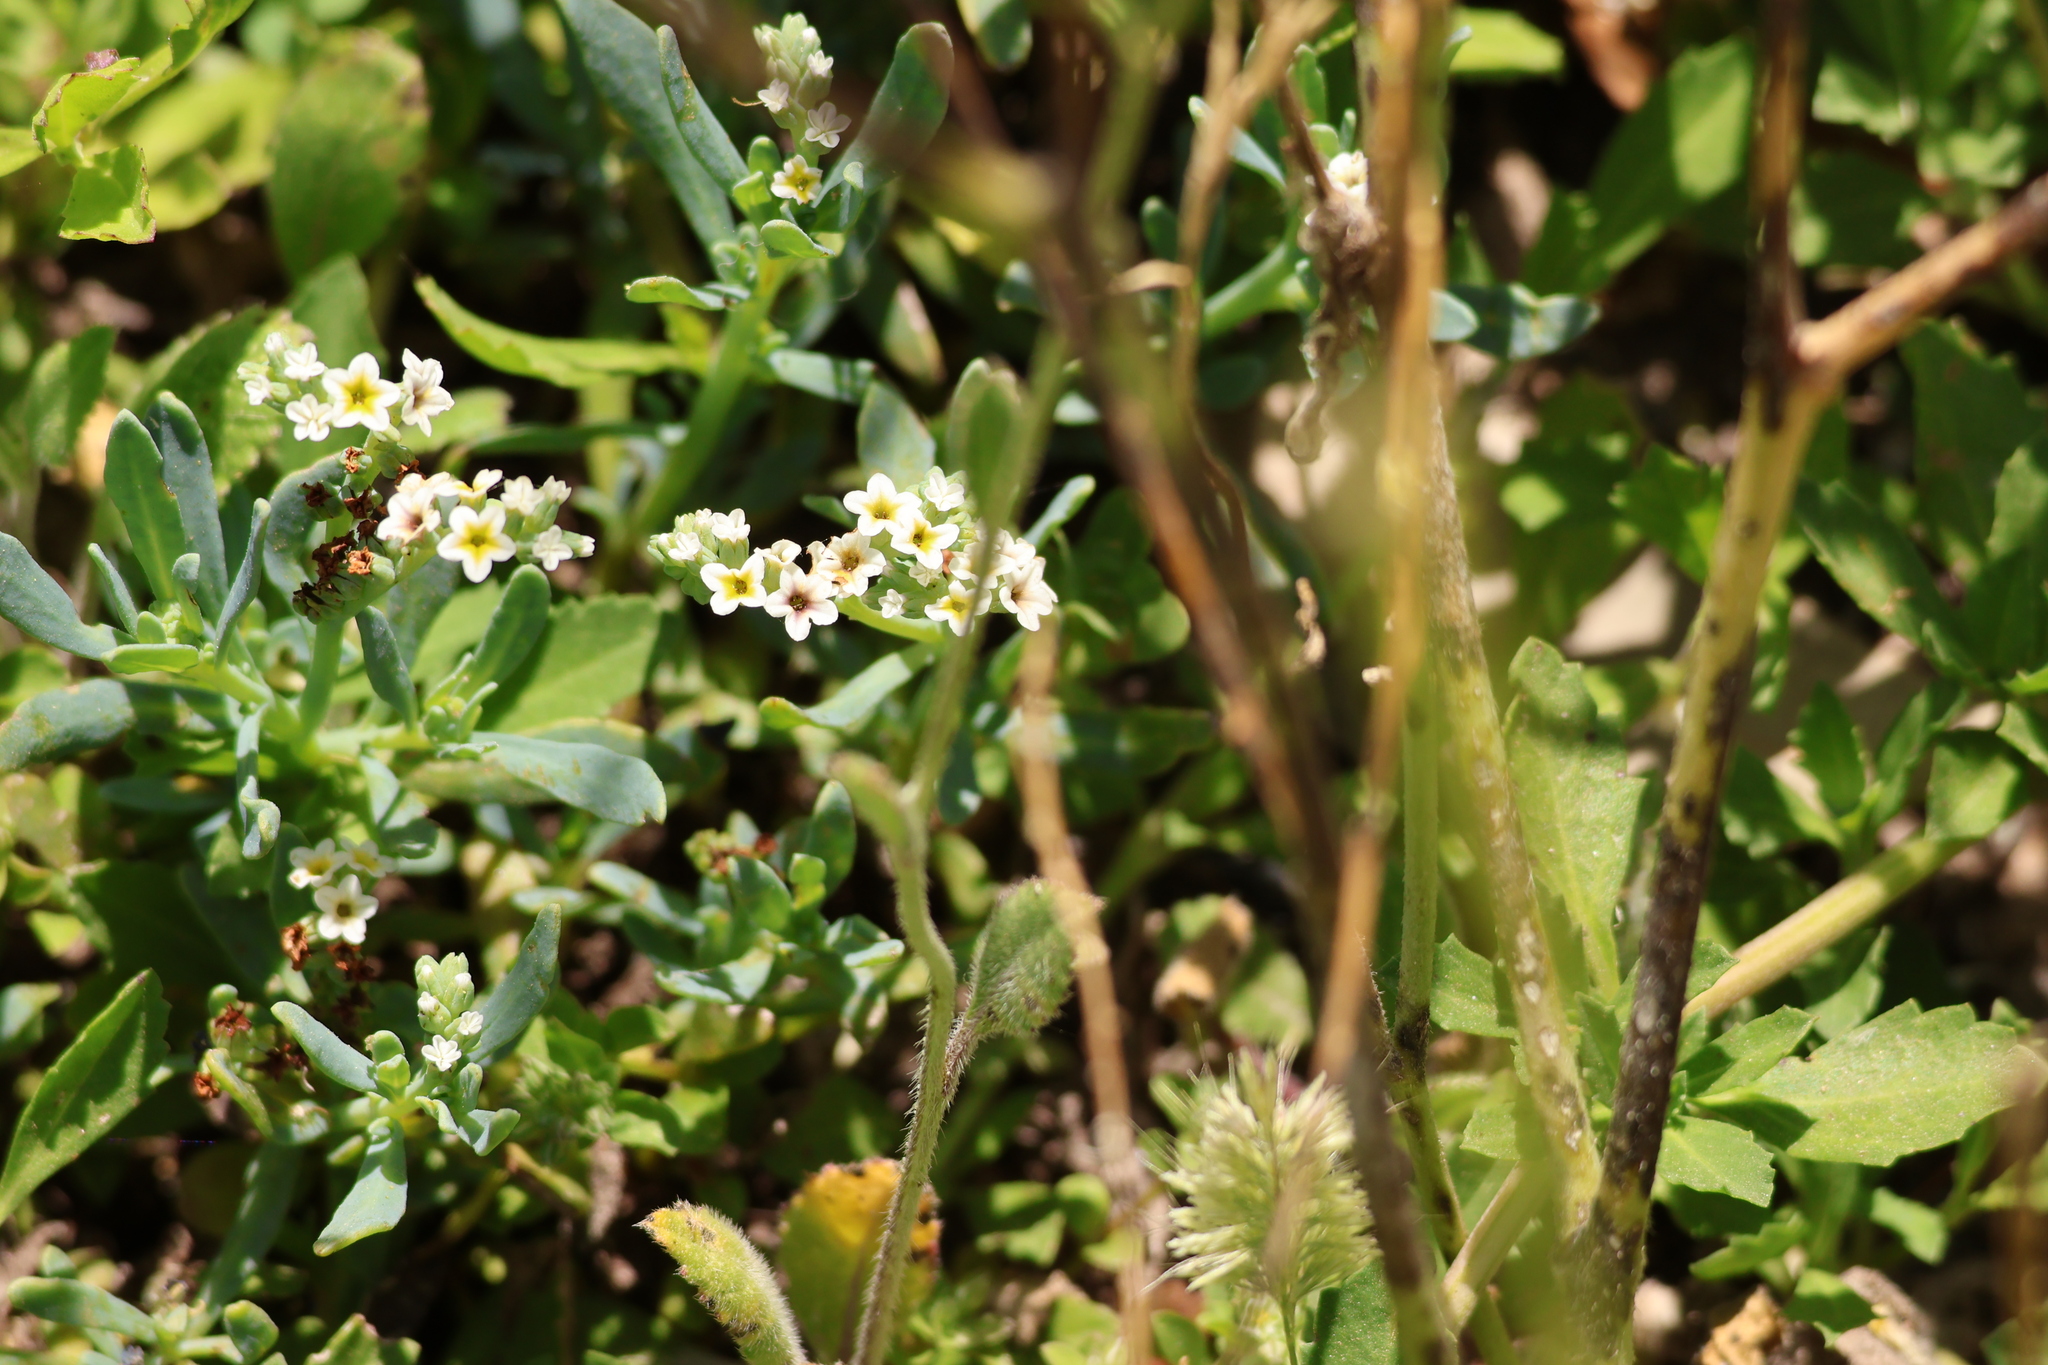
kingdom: Plantae
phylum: Tracheophyta
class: Magnoliopsida
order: Boraginales
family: Heliotropiaceae
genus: Heliotropium
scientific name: Heliotropium curassavicum
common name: Seaside heliotrope
